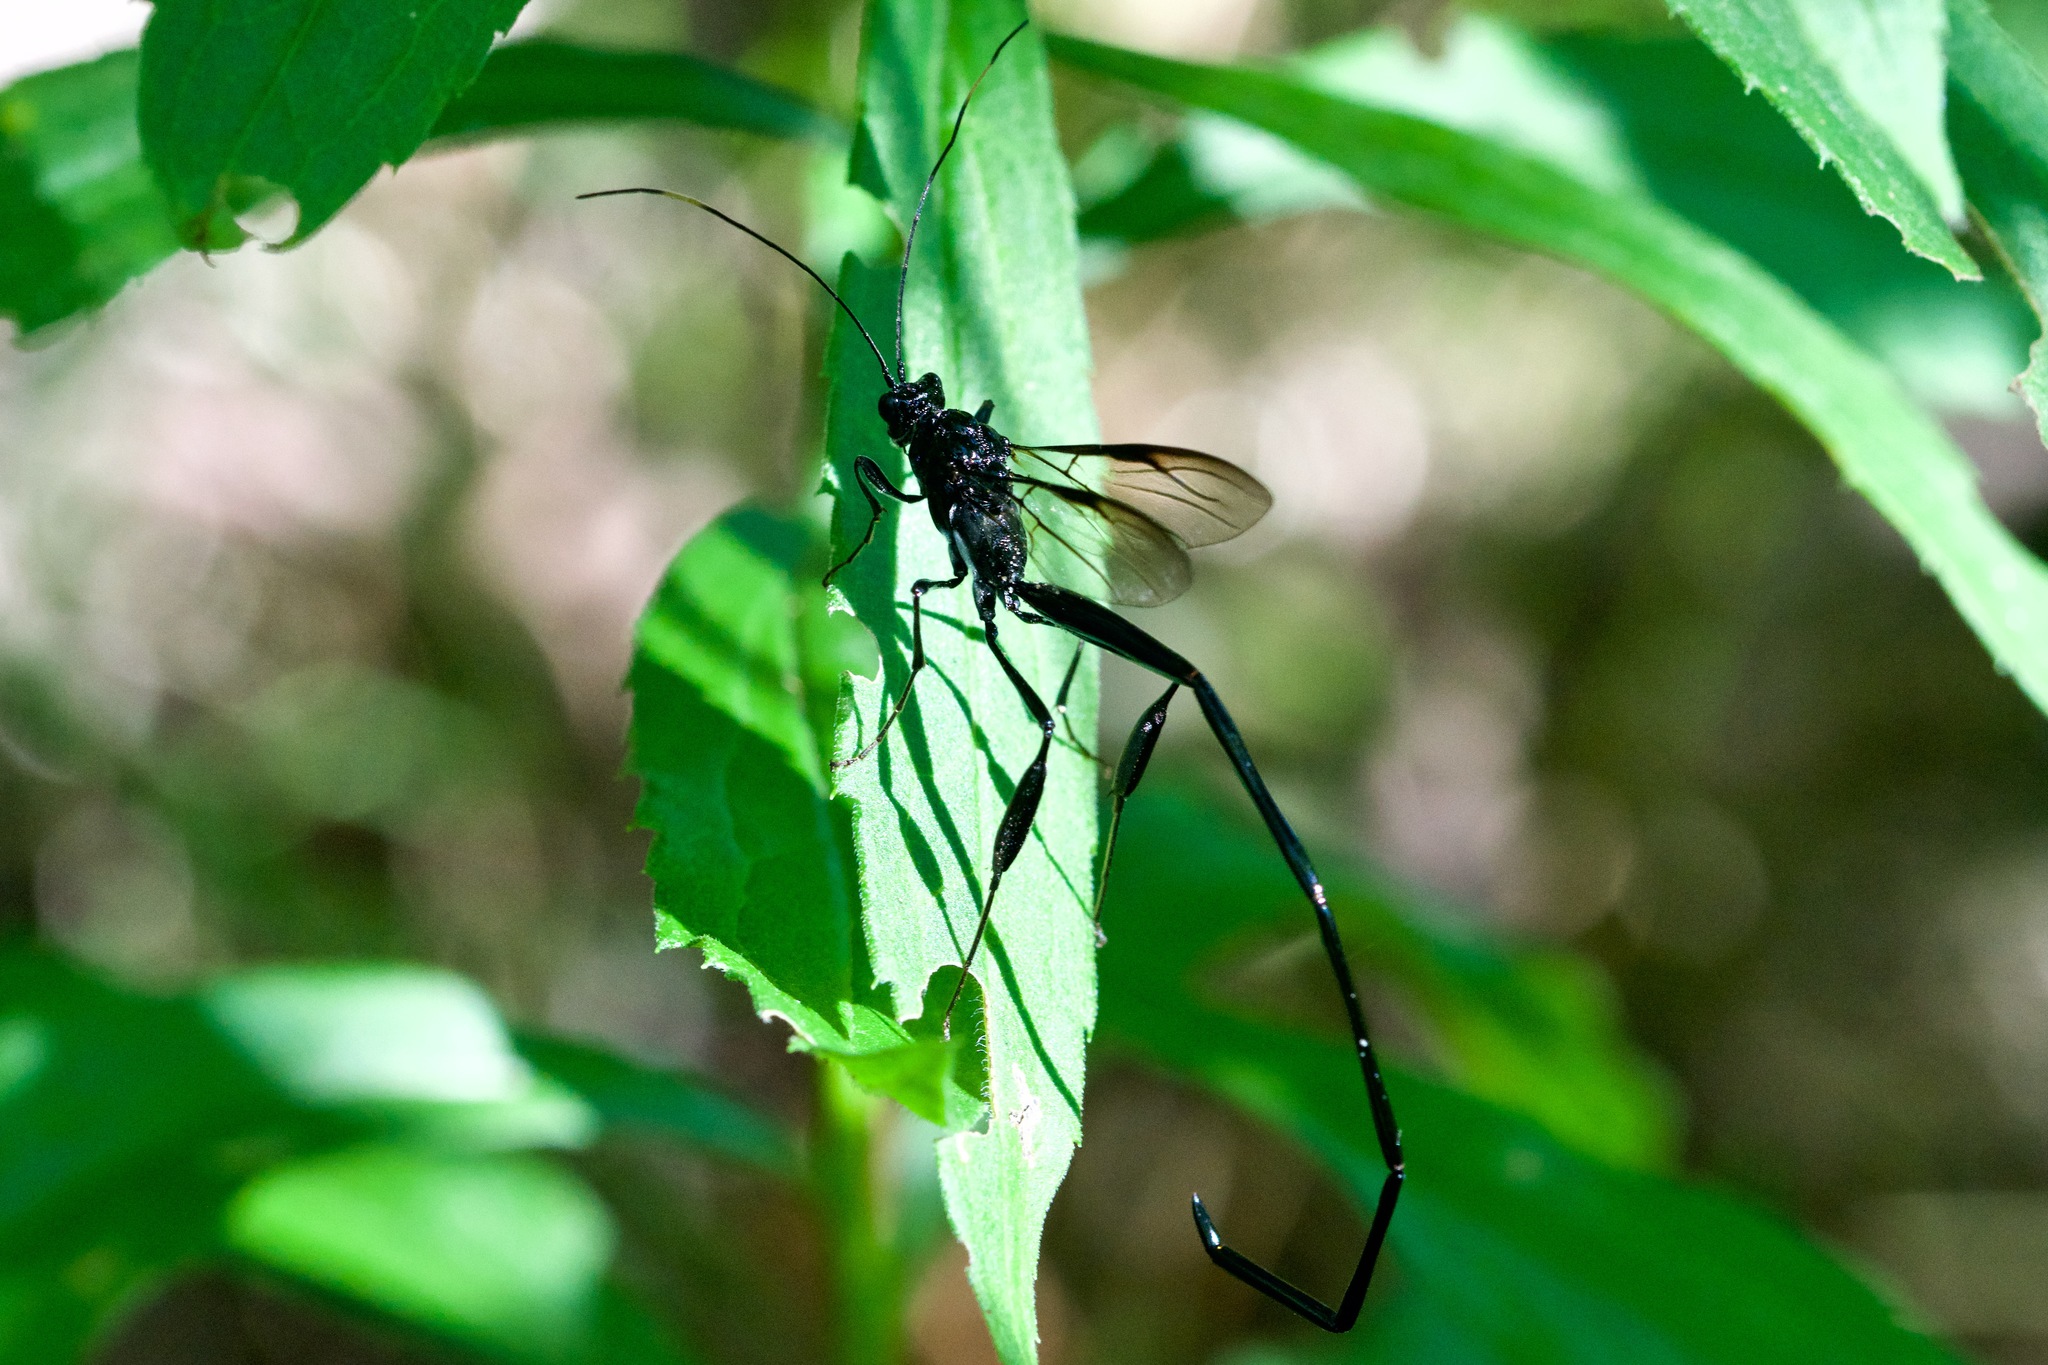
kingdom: Animalia
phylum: Arthropoda
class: Insecta
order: Hymenoptera
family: Pelecinidae
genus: Pelecinus
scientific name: Pelecinus polyturator
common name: American pelecinid wasp
